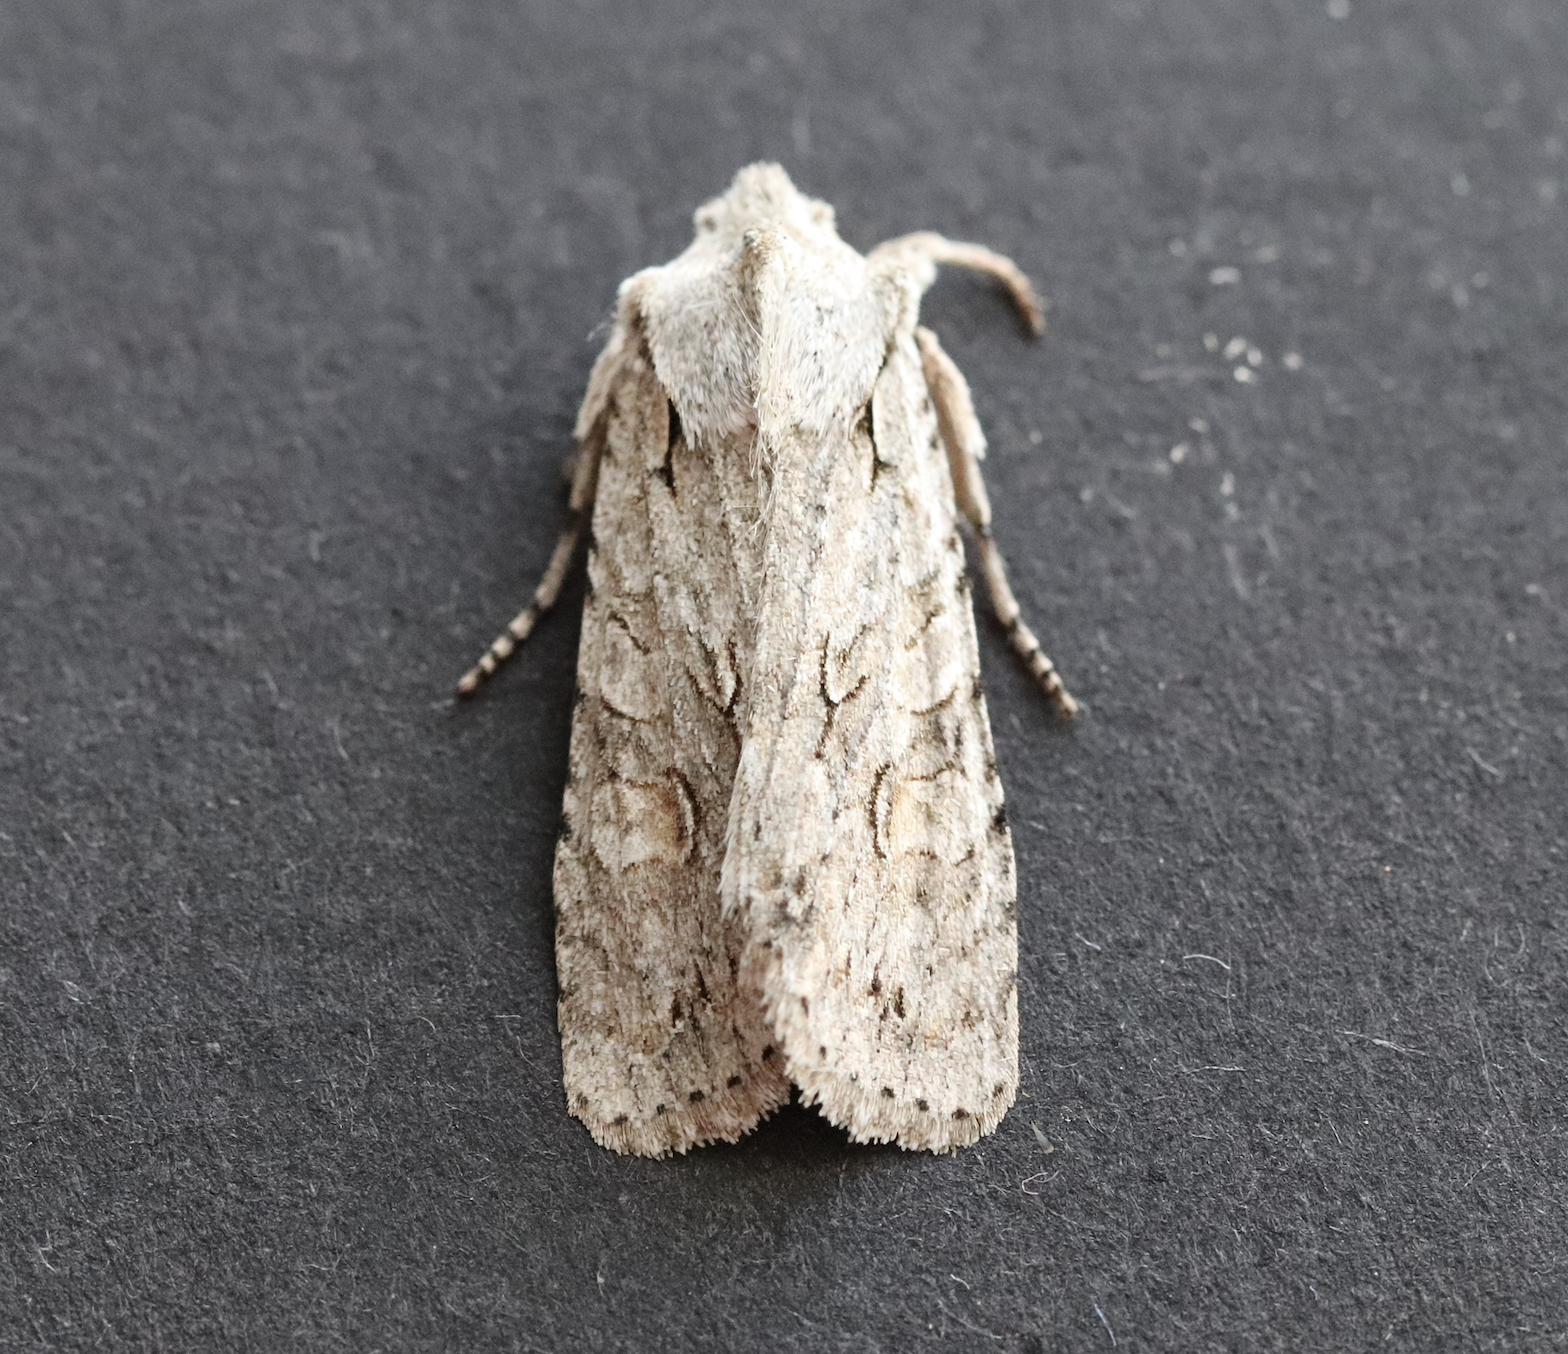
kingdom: Animalia
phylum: Arthropoda
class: Insecta
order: Lepidoptera
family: Noctuidae
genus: Lithophane
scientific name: Lithophane ornitopus
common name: Grey shoulder-knot
